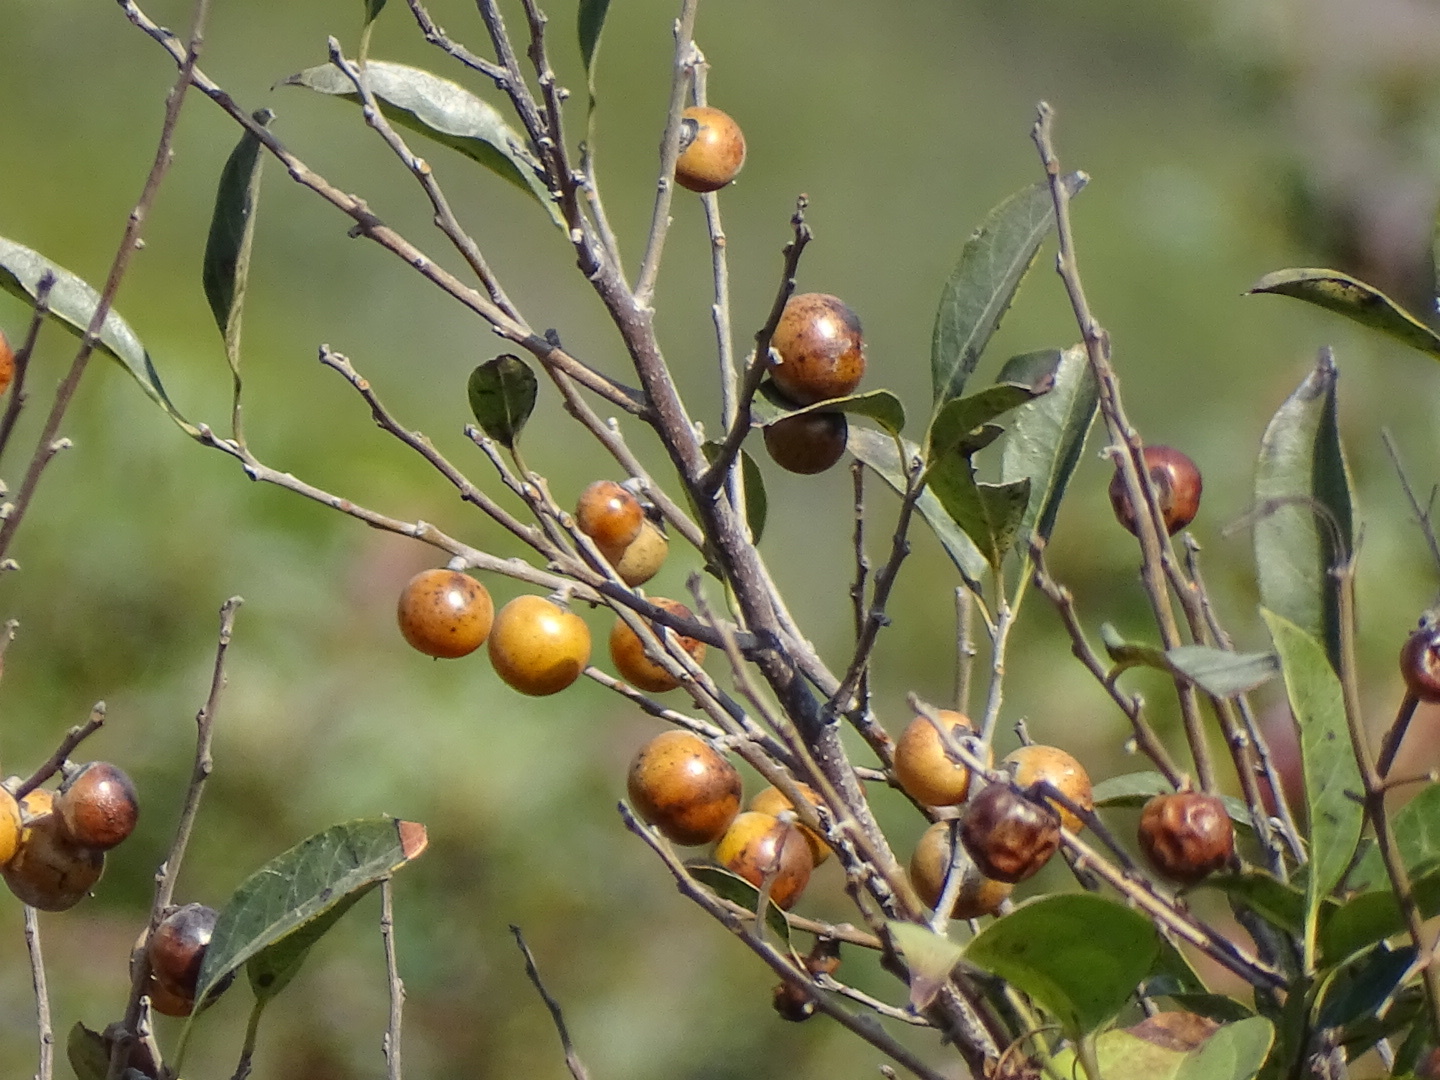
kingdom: Plantae
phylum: Tracheophyta
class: Magnoliopsida
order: Ericales
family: Ebenaceae
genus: Diospyros
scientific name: Diospyros morrisiana
